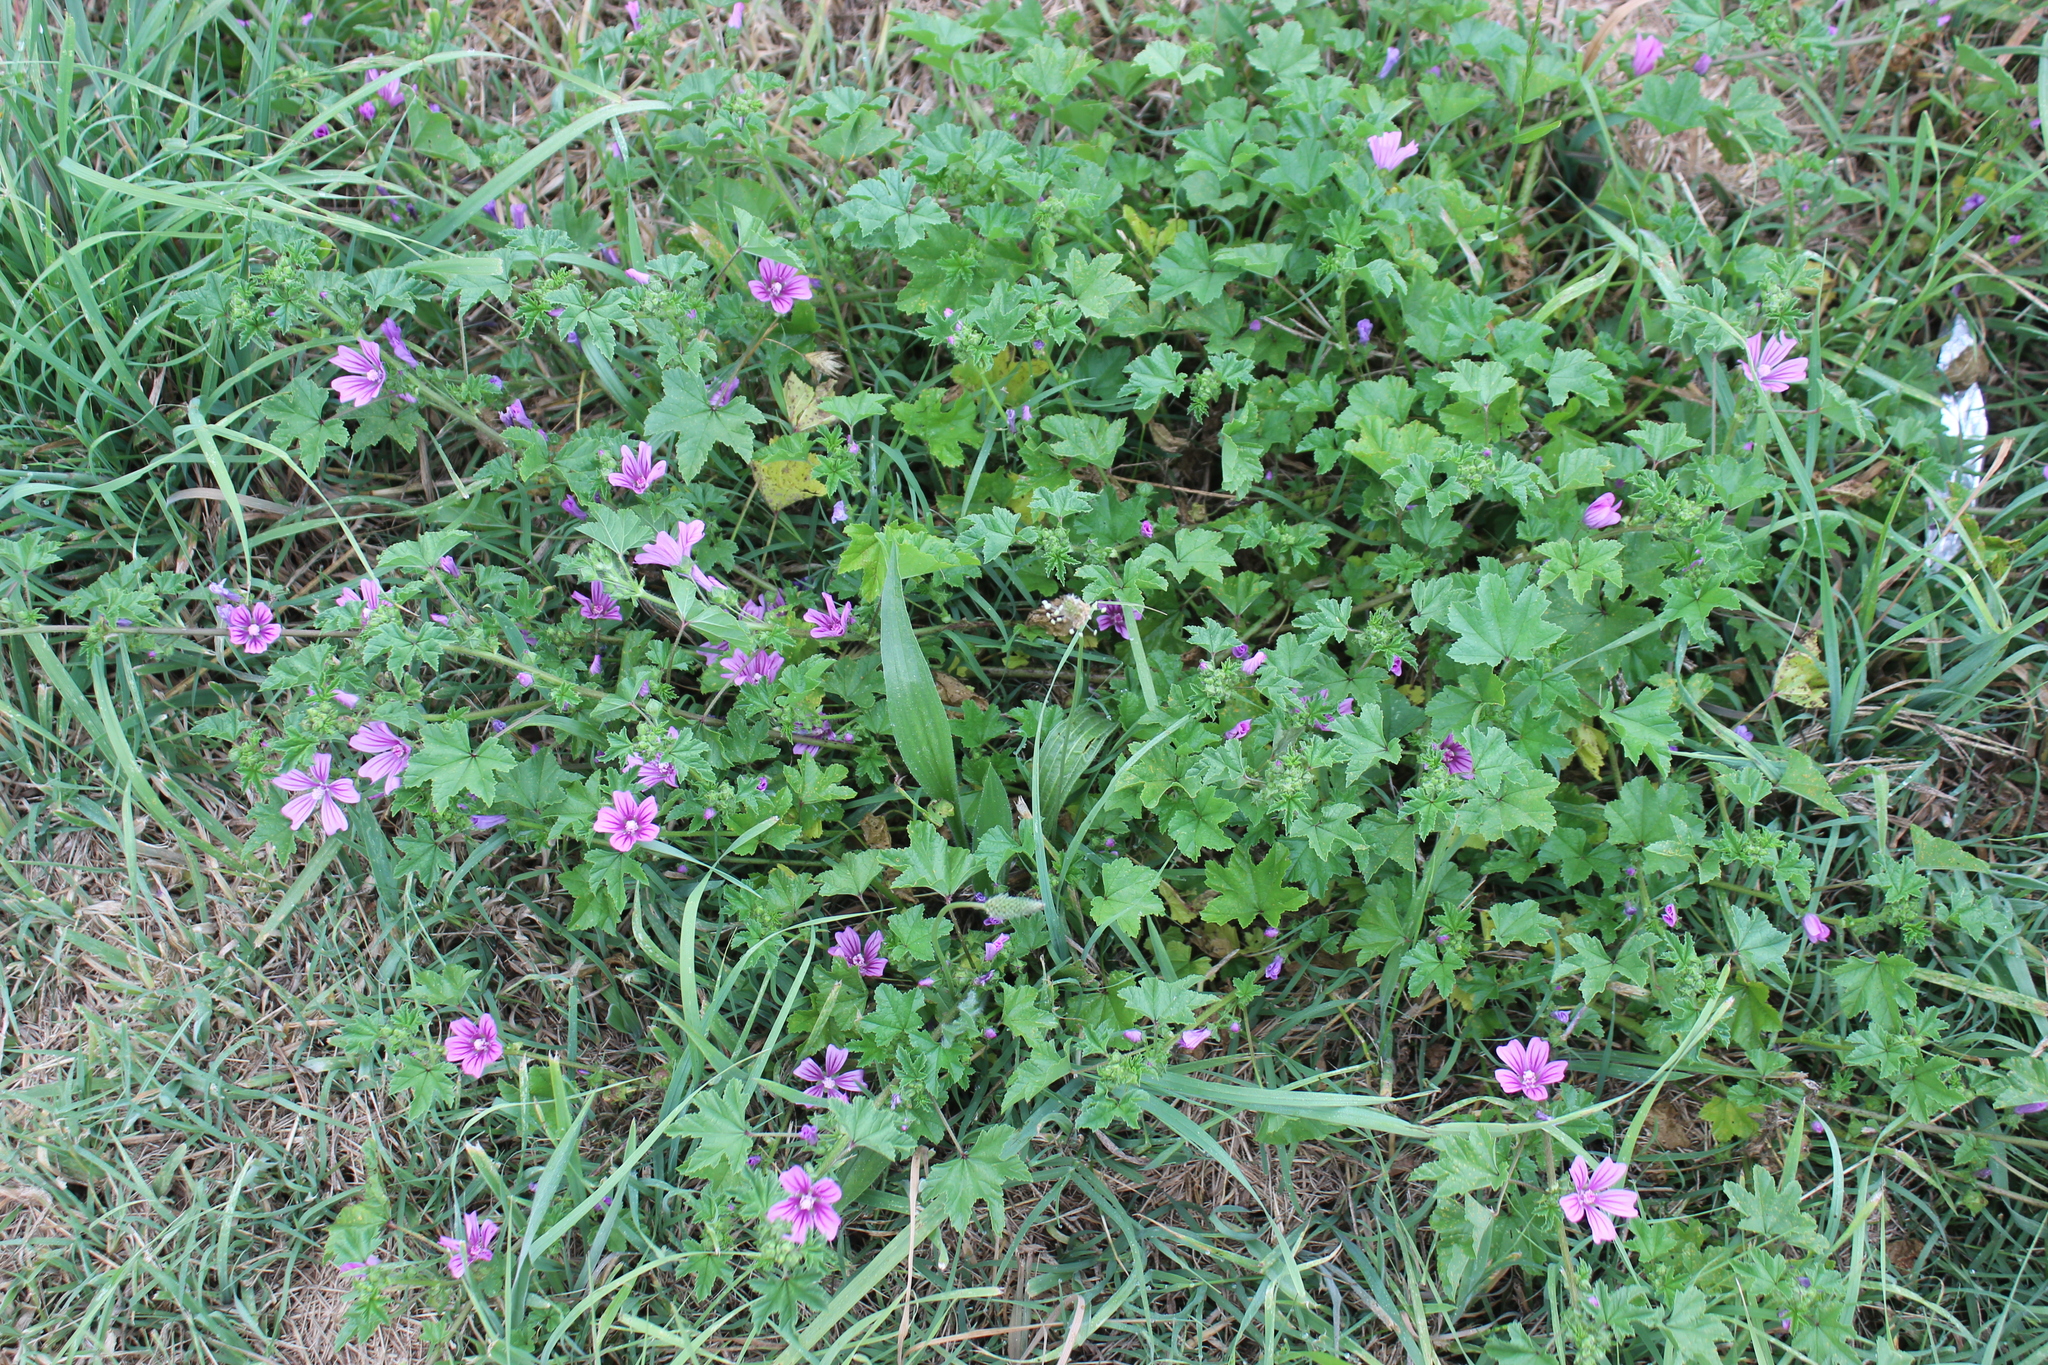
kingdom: Plantae
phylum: Tracheophyta
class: Magnoliopsida
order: Malvales
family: Malvaceae
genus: Malva
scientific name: Malva sylvestris
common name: Common mallow
